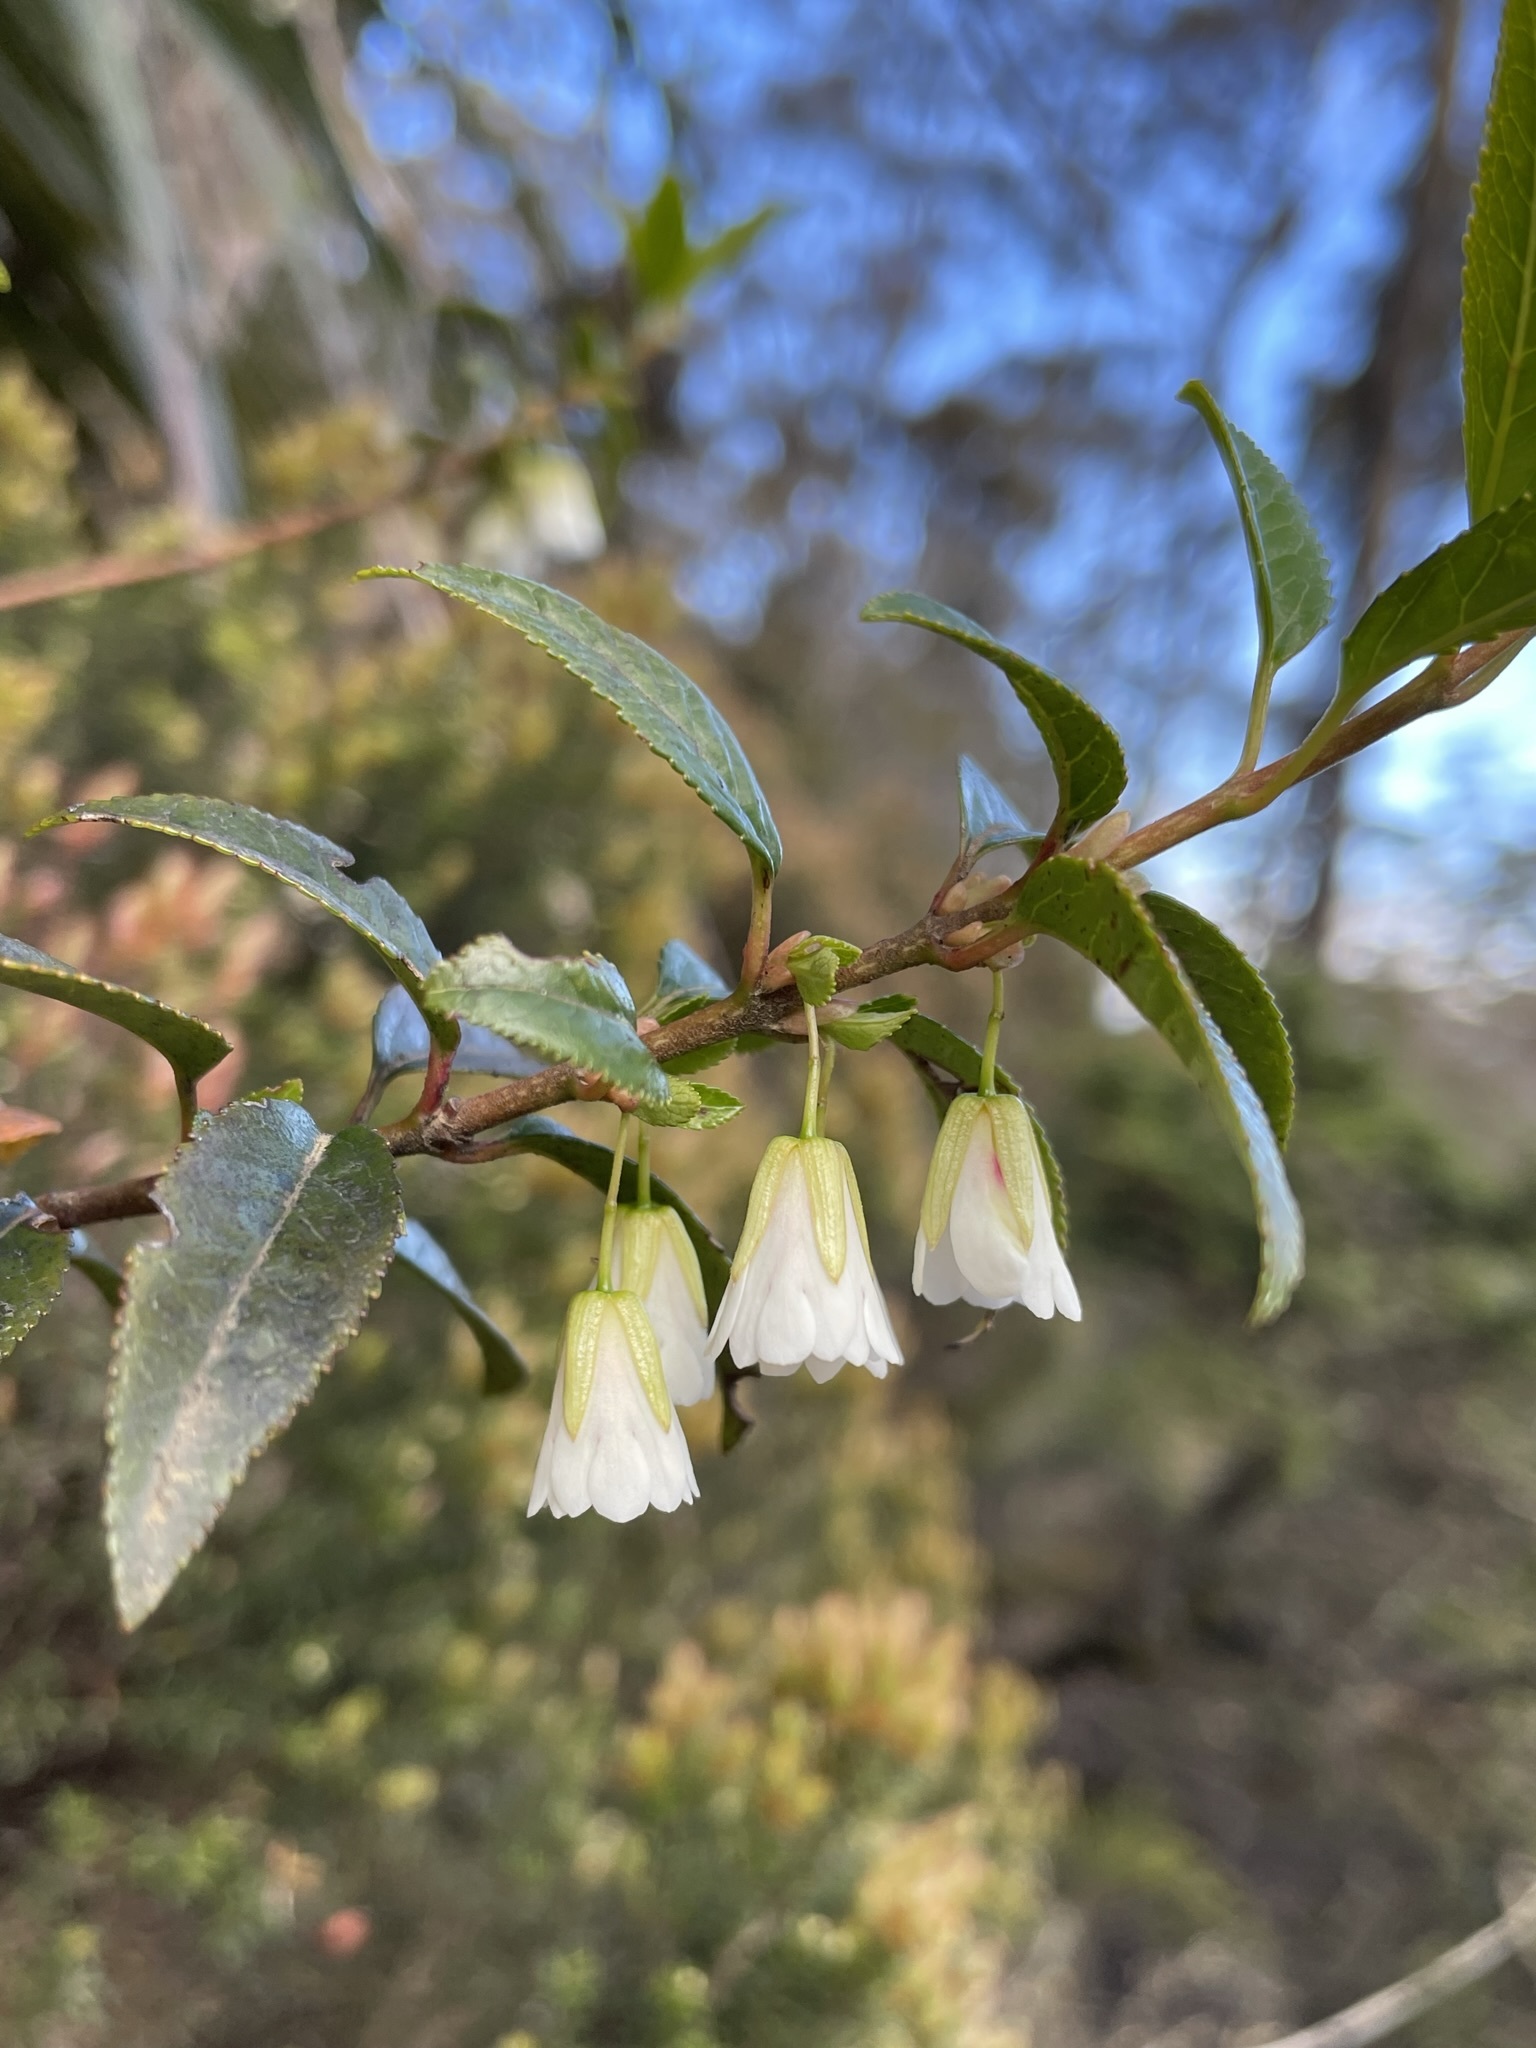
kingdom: Plantae
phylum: Tracheophyta
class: Magnoliopsida
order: Oxalidales
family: Elaeocarpaceae
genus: Aristotelia
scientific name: Aristotelia peduncularis
